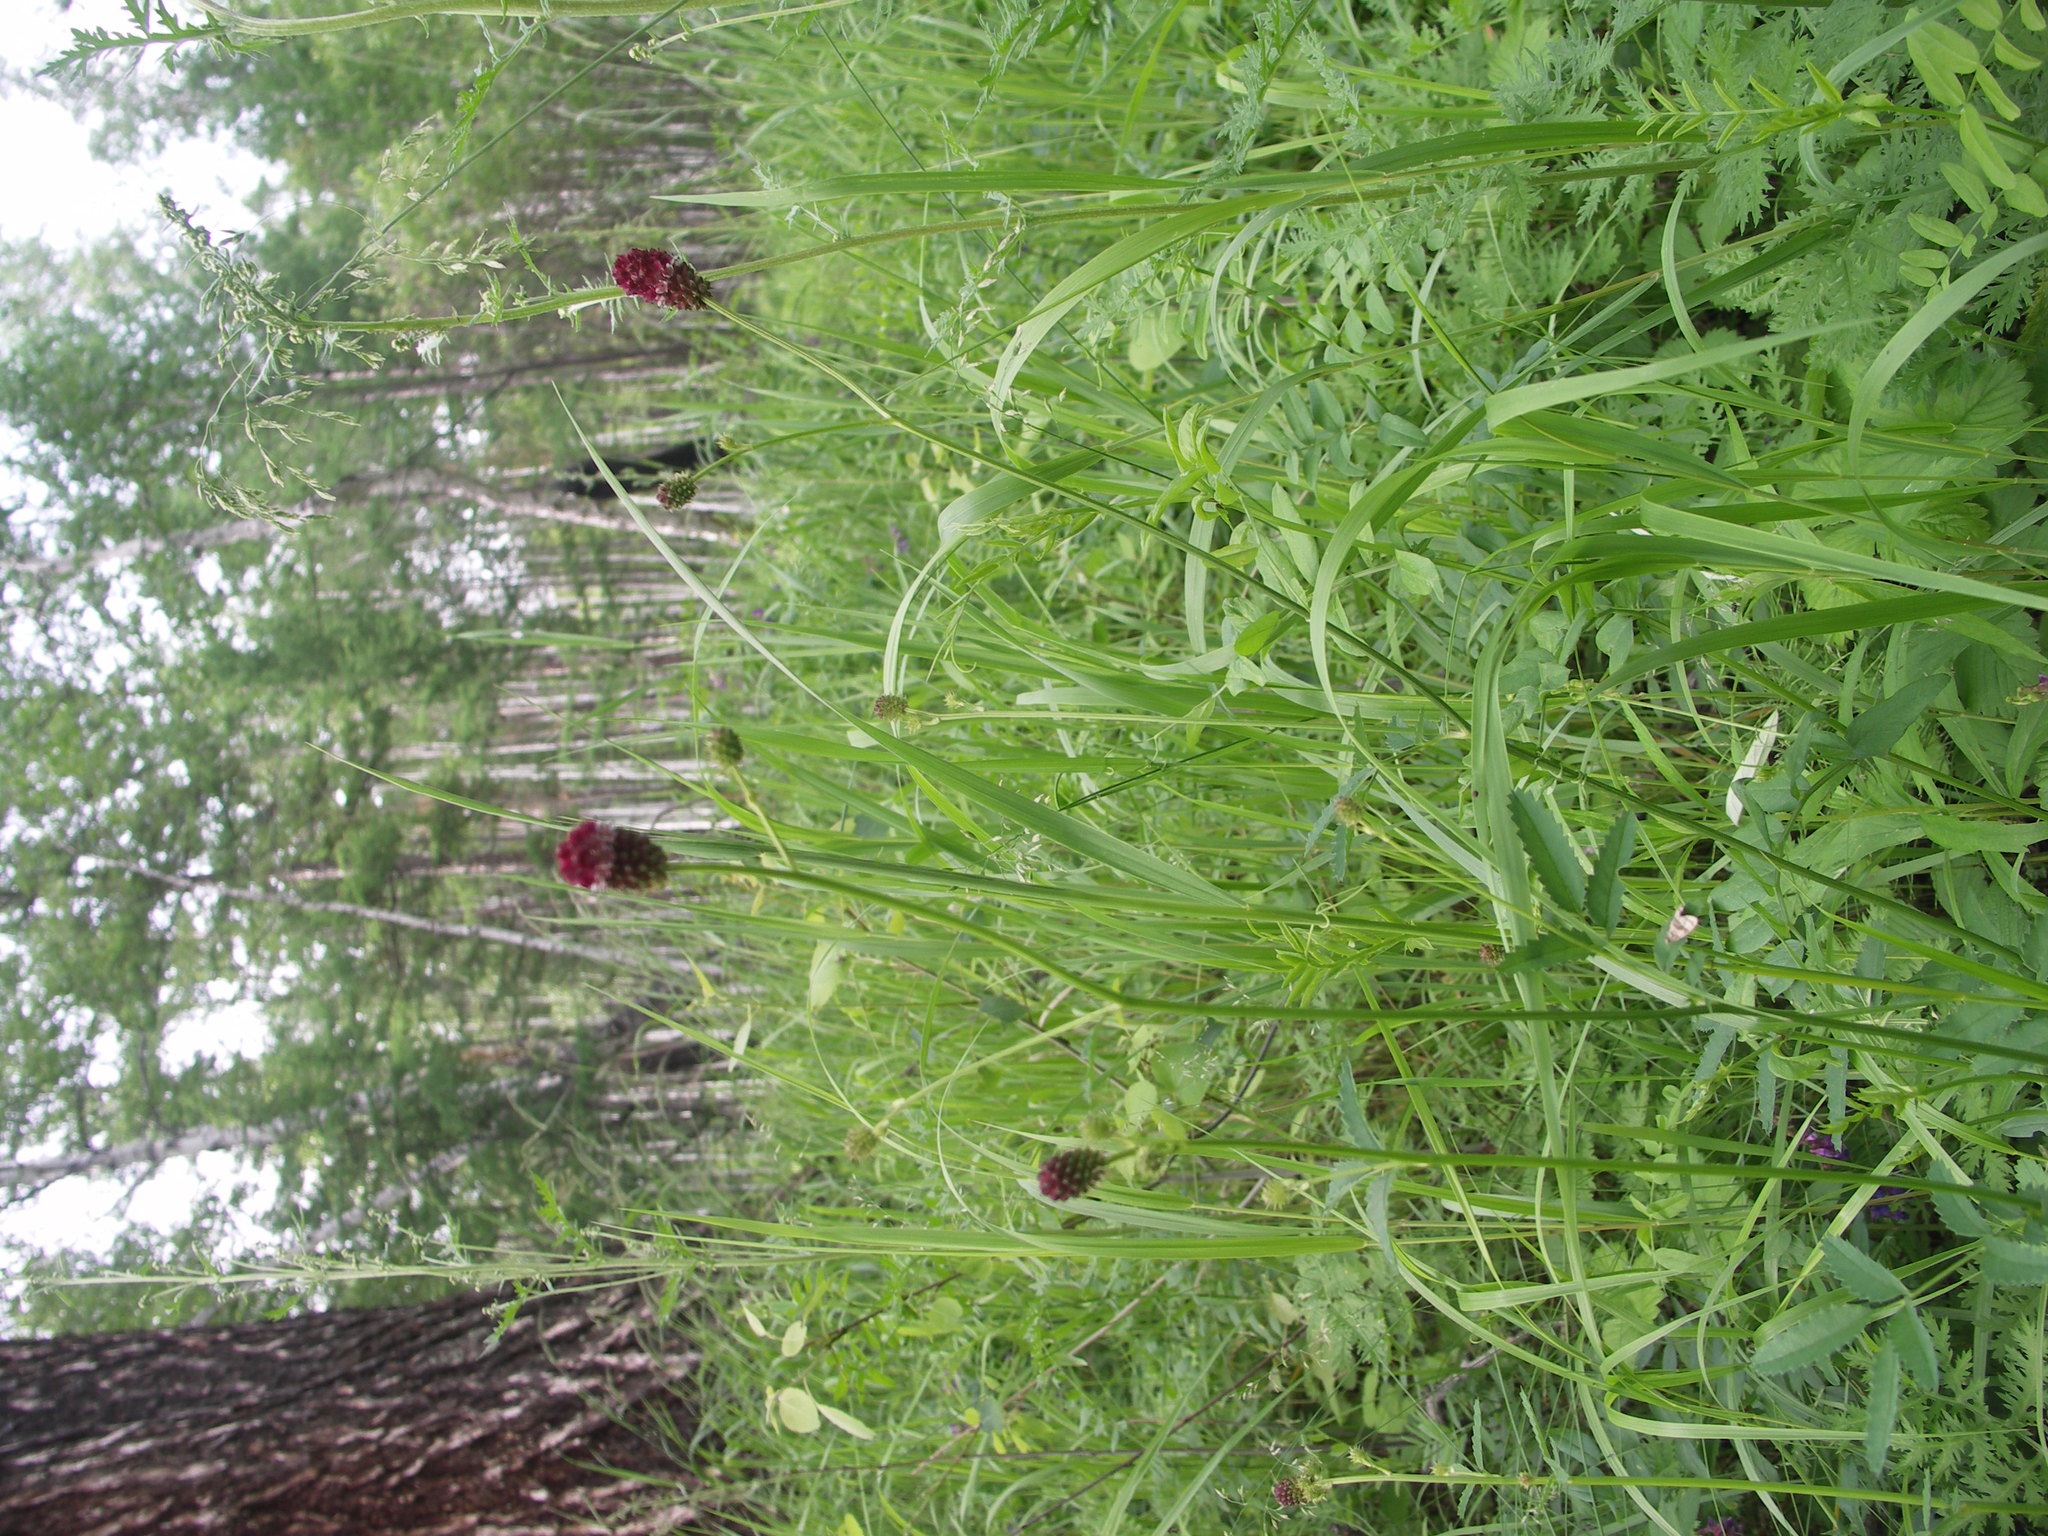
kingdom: Plantae
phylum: Tracheophyta
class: Magnoliopsida
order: Rosales
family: Rosaceae
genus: Sanguisorba
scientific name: Sanguisorba officinalis
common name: Great burnet
